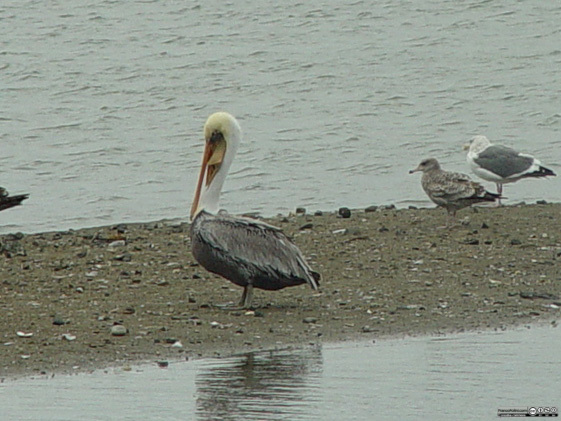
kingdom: Animalia
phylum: Chordata
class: Aves
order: Pelecaniformes
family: Pelecanidae
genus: Pelecanus
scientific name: Pelecanus occidentalis
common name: Brown pelican
